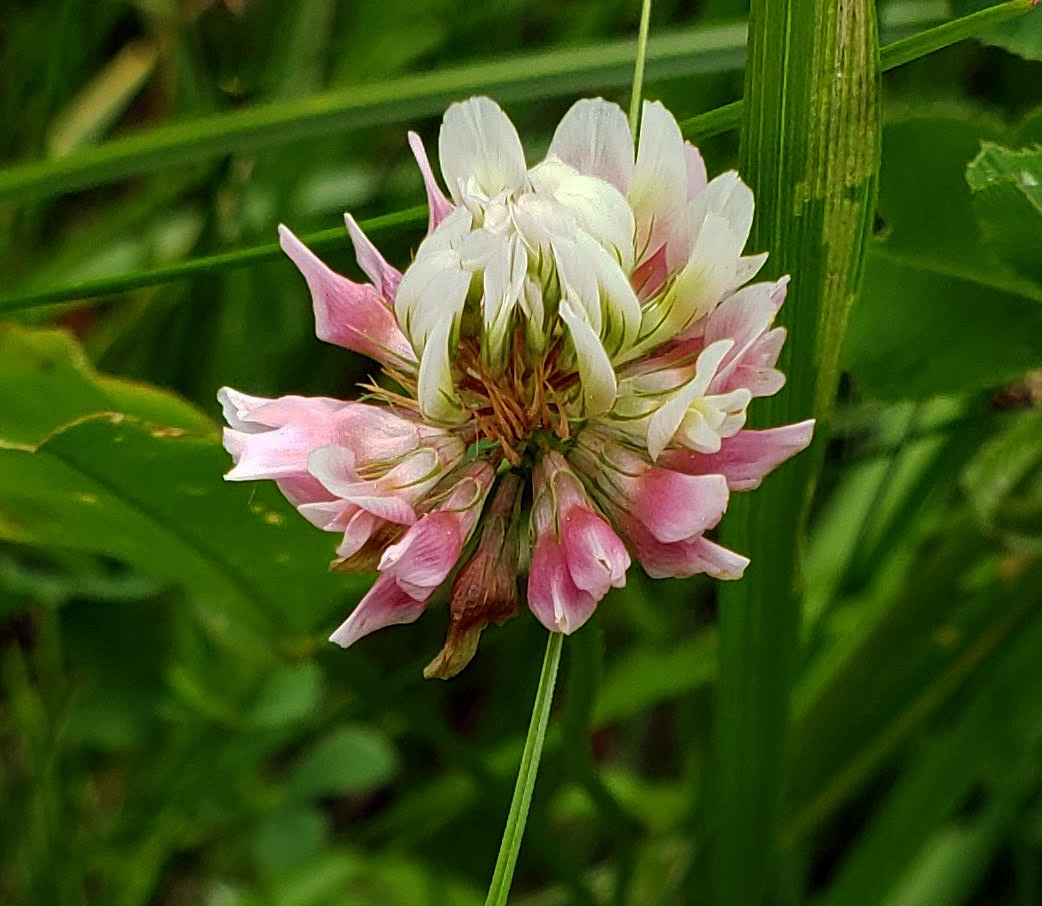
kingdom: Plantae
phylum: Tracheophyta
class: Magnoliopsida
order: Fabales
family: Fabaceae
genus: Trifolium
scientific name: Trifolium hybridum
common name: Alsike clover
